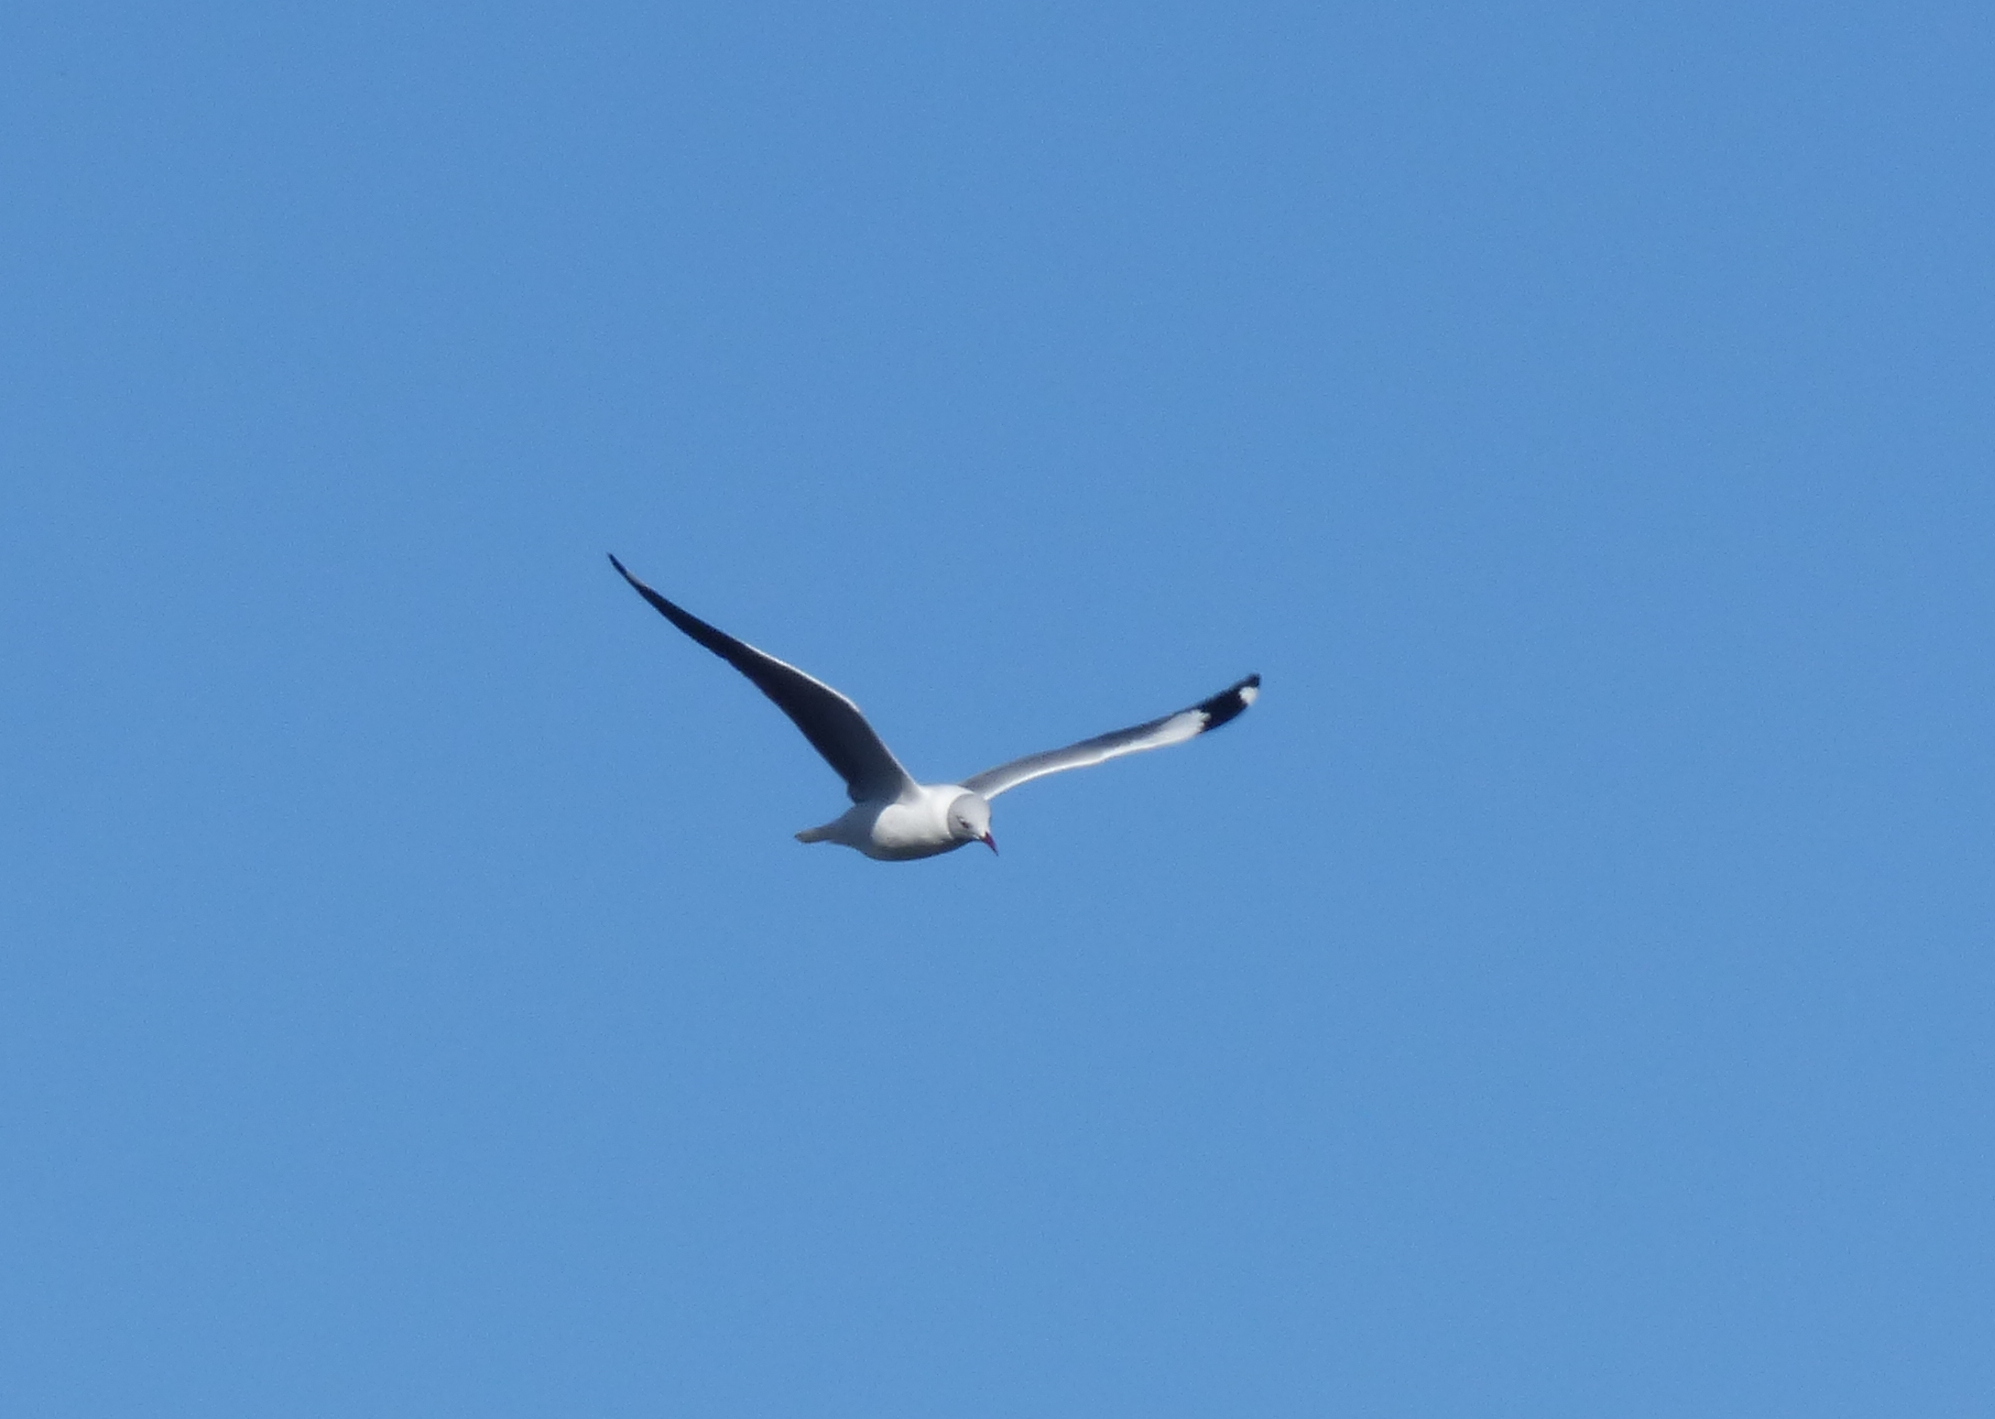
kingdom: Animalia
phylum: Chordata
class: Aves
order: Charadriiformes
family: Laridae
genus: Chroicocephalus
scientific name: Chroicocephalus cirrocephalus
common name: Grey-headed gull
